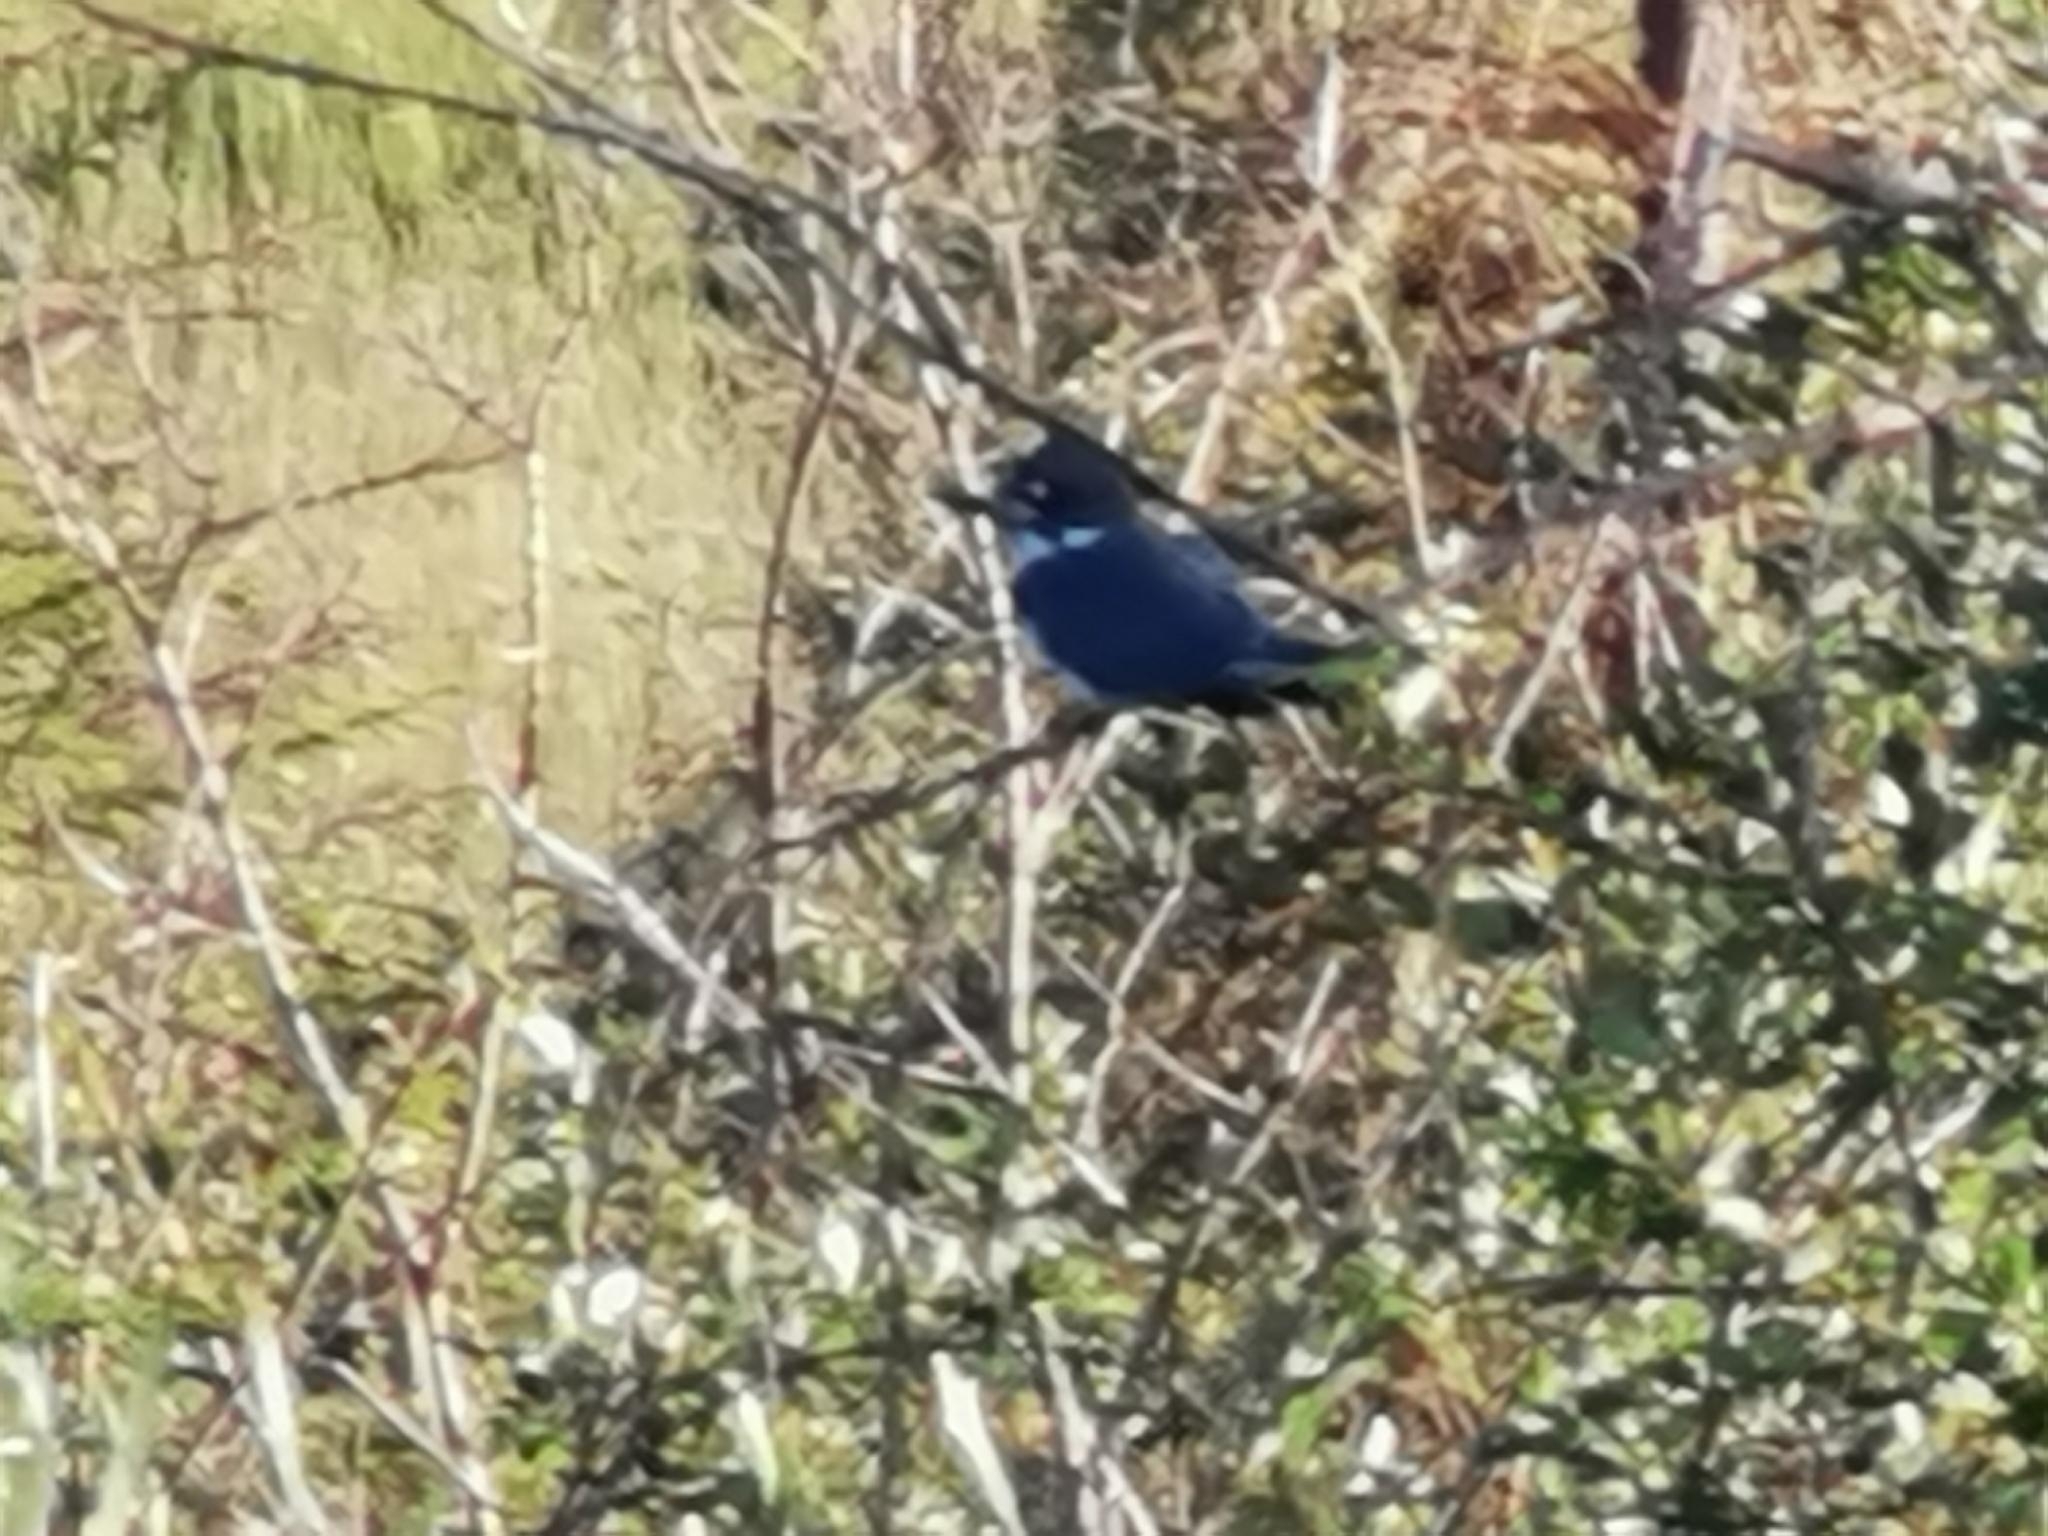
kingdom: Animalia
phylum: Chordata
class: Aves
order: Coraciiformes
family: Alcedinidae
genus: Megaceryle
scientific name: Megaceryle alcyon
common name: Belted kingfisher
